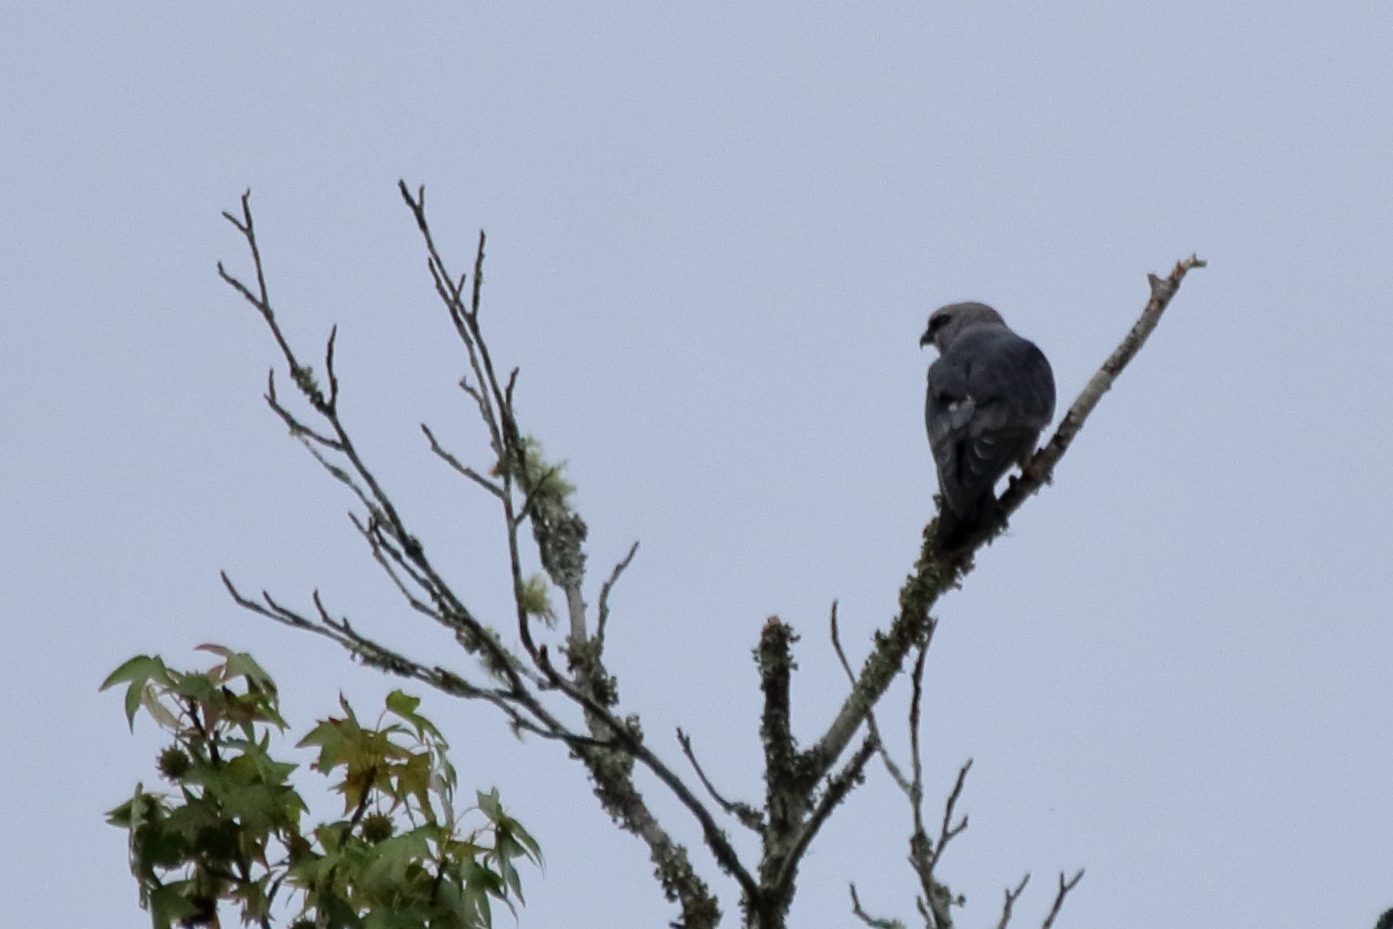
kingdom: Animalia
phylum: Chordata
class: Aves
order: Accipitriformes
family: Accipitridae
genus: Ictinia
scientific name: Ictinia mississippiensis
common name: Mississippi kite
